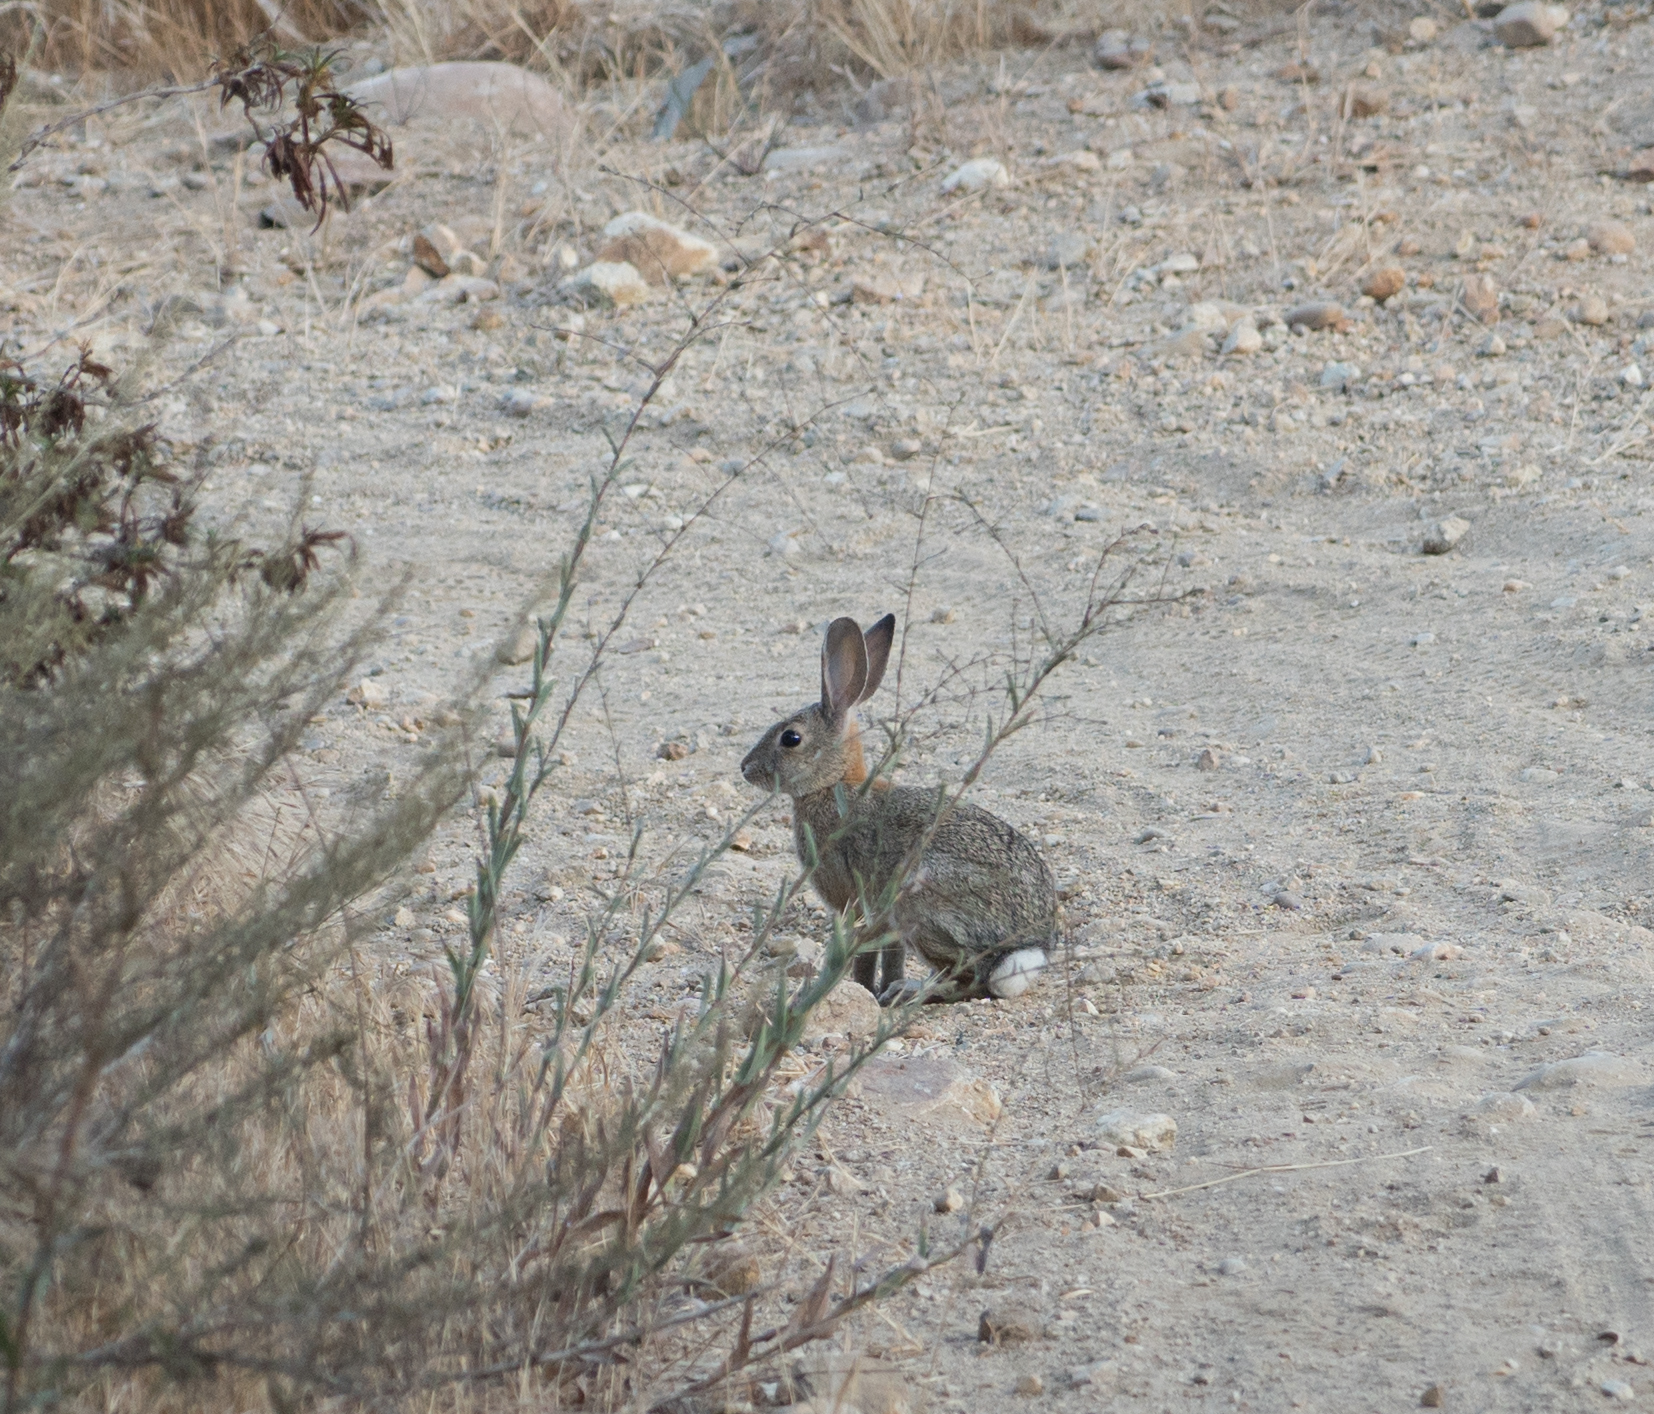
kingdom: Animalia
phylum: Chordata
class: Mammalia
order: Lagomorpha
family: Leporidae
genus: Sylvilagus
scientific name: Sylvilagus audubonii
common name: Desert cottontail
